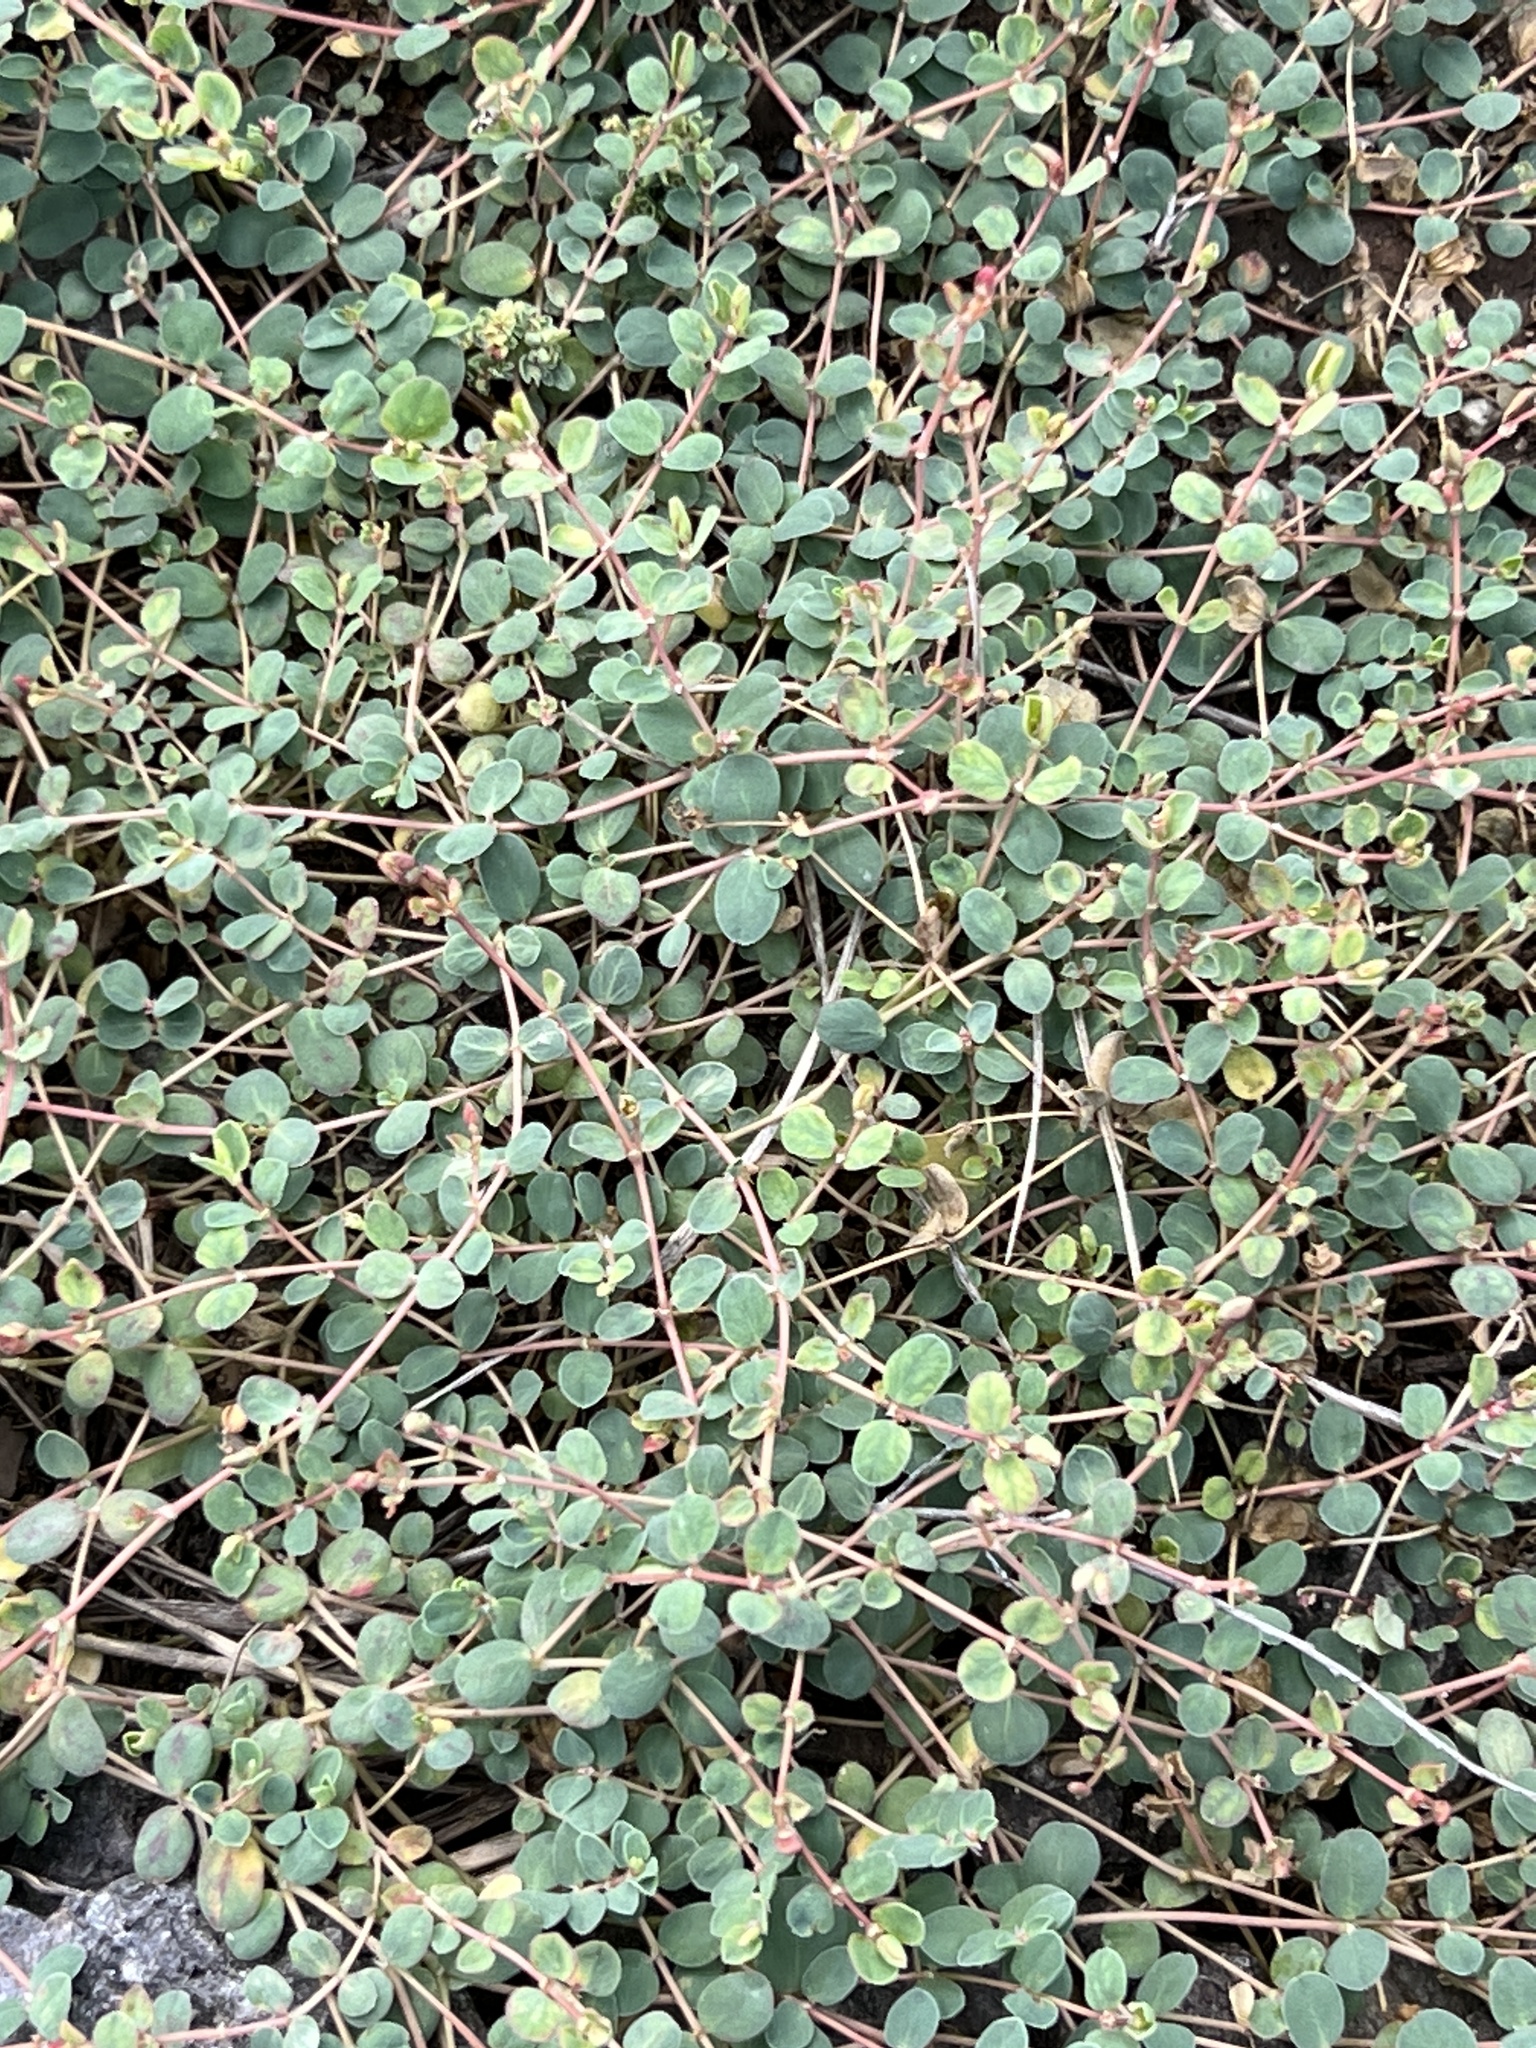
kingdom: Plantae
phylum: Tracheophyta
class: Magnoliopsida
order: Malpighiales
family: Euphorbiaceae
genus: Euphorbia
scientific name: Euphorbia albomarginata
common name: Whitemargin sandmat
